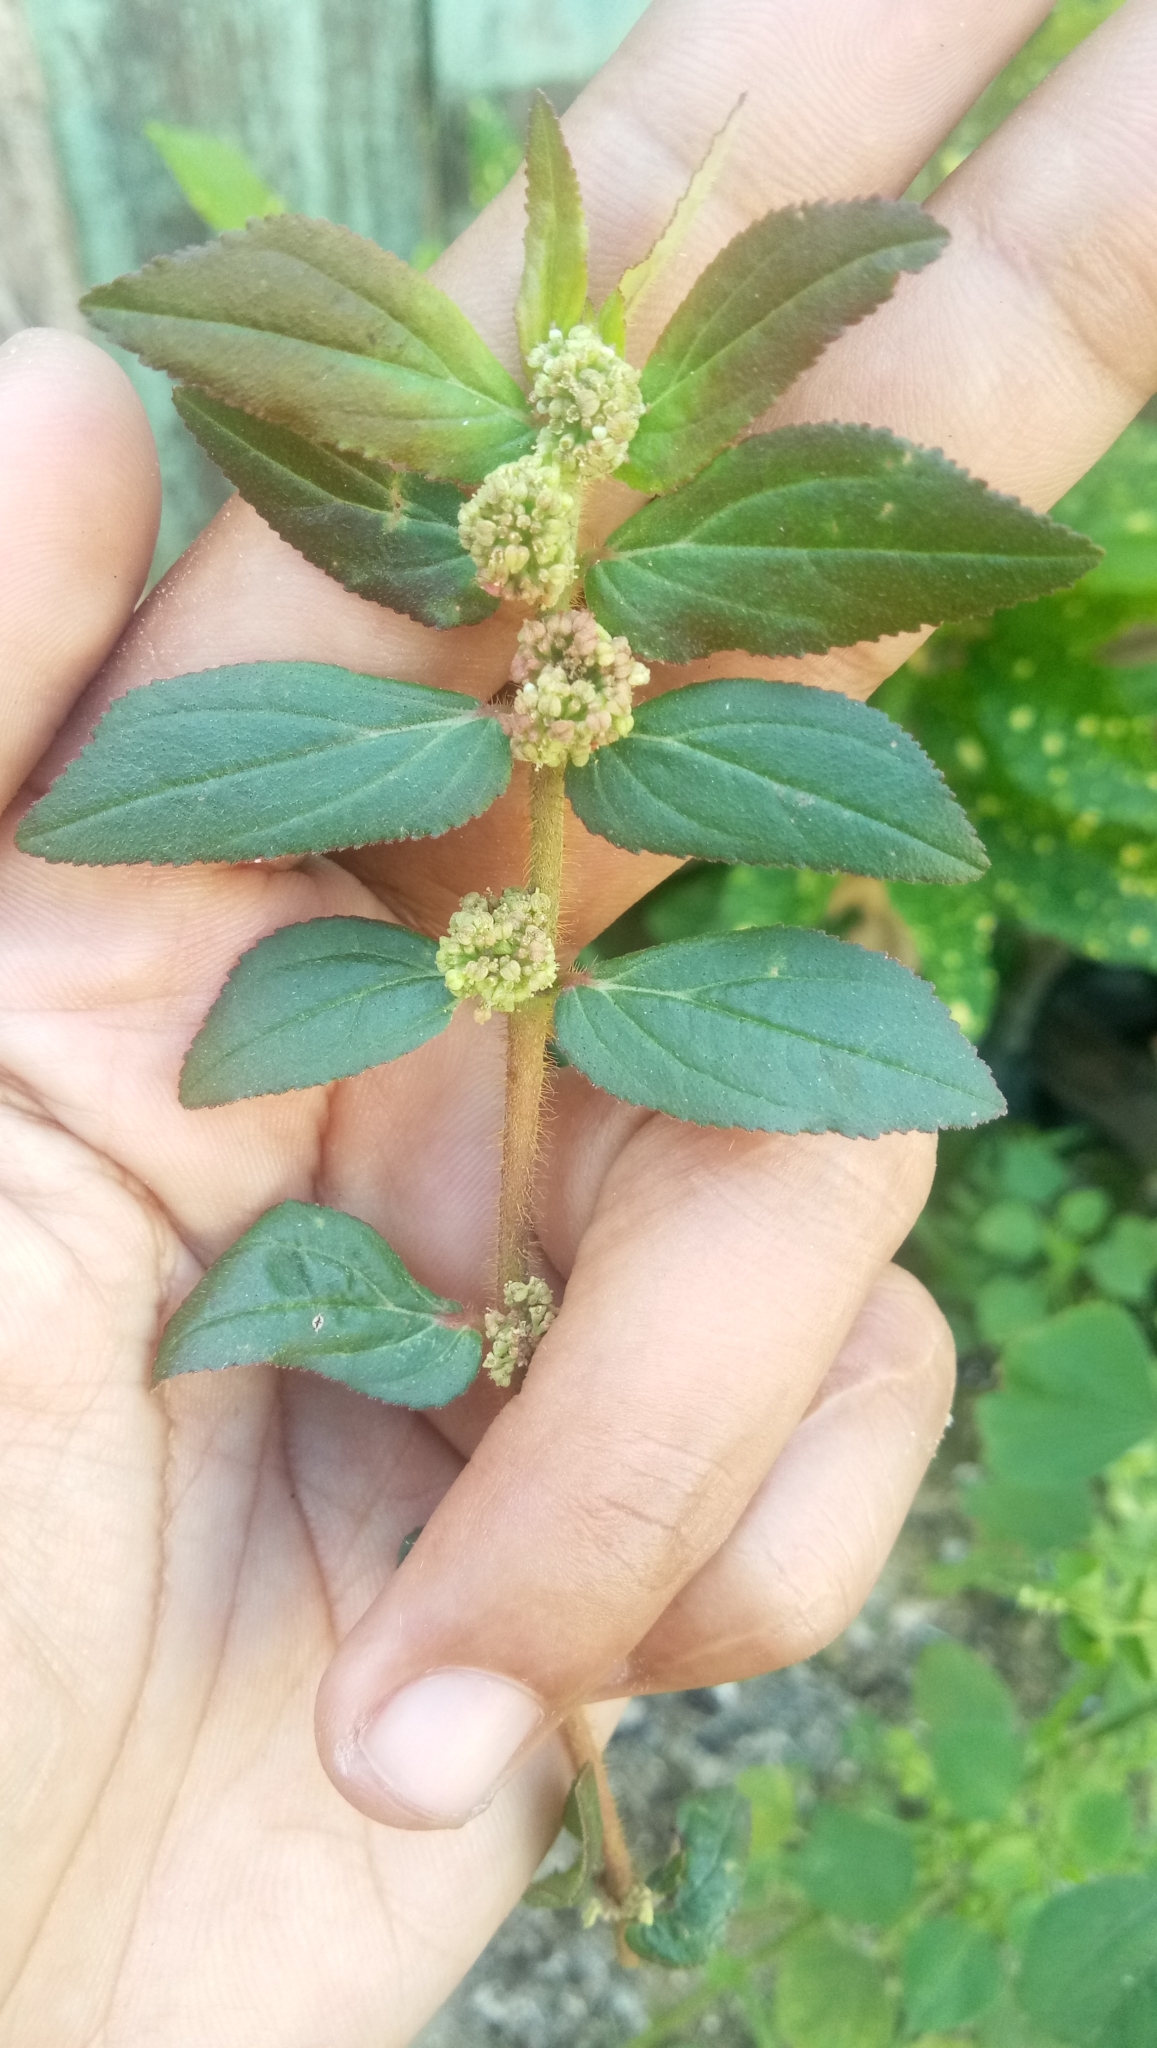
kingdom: Plantae
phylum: Tracheophyta
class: Magnoliopsida
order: Malpighiales
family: Euphorbiaceae
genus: Euphorbia
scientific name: Euphorbia hirta
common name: Pillpod sandmat
